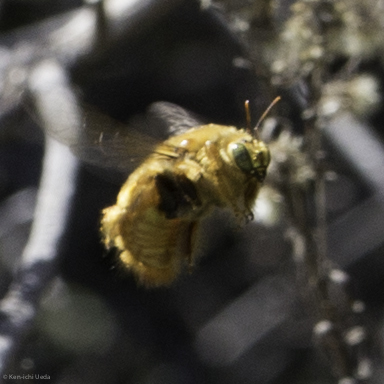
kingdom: Animalia
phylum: Arthropoda
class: Insecta
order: Hymenoptera
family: Apidae
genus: Xylocopa
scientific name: Xylocopa sonorina
